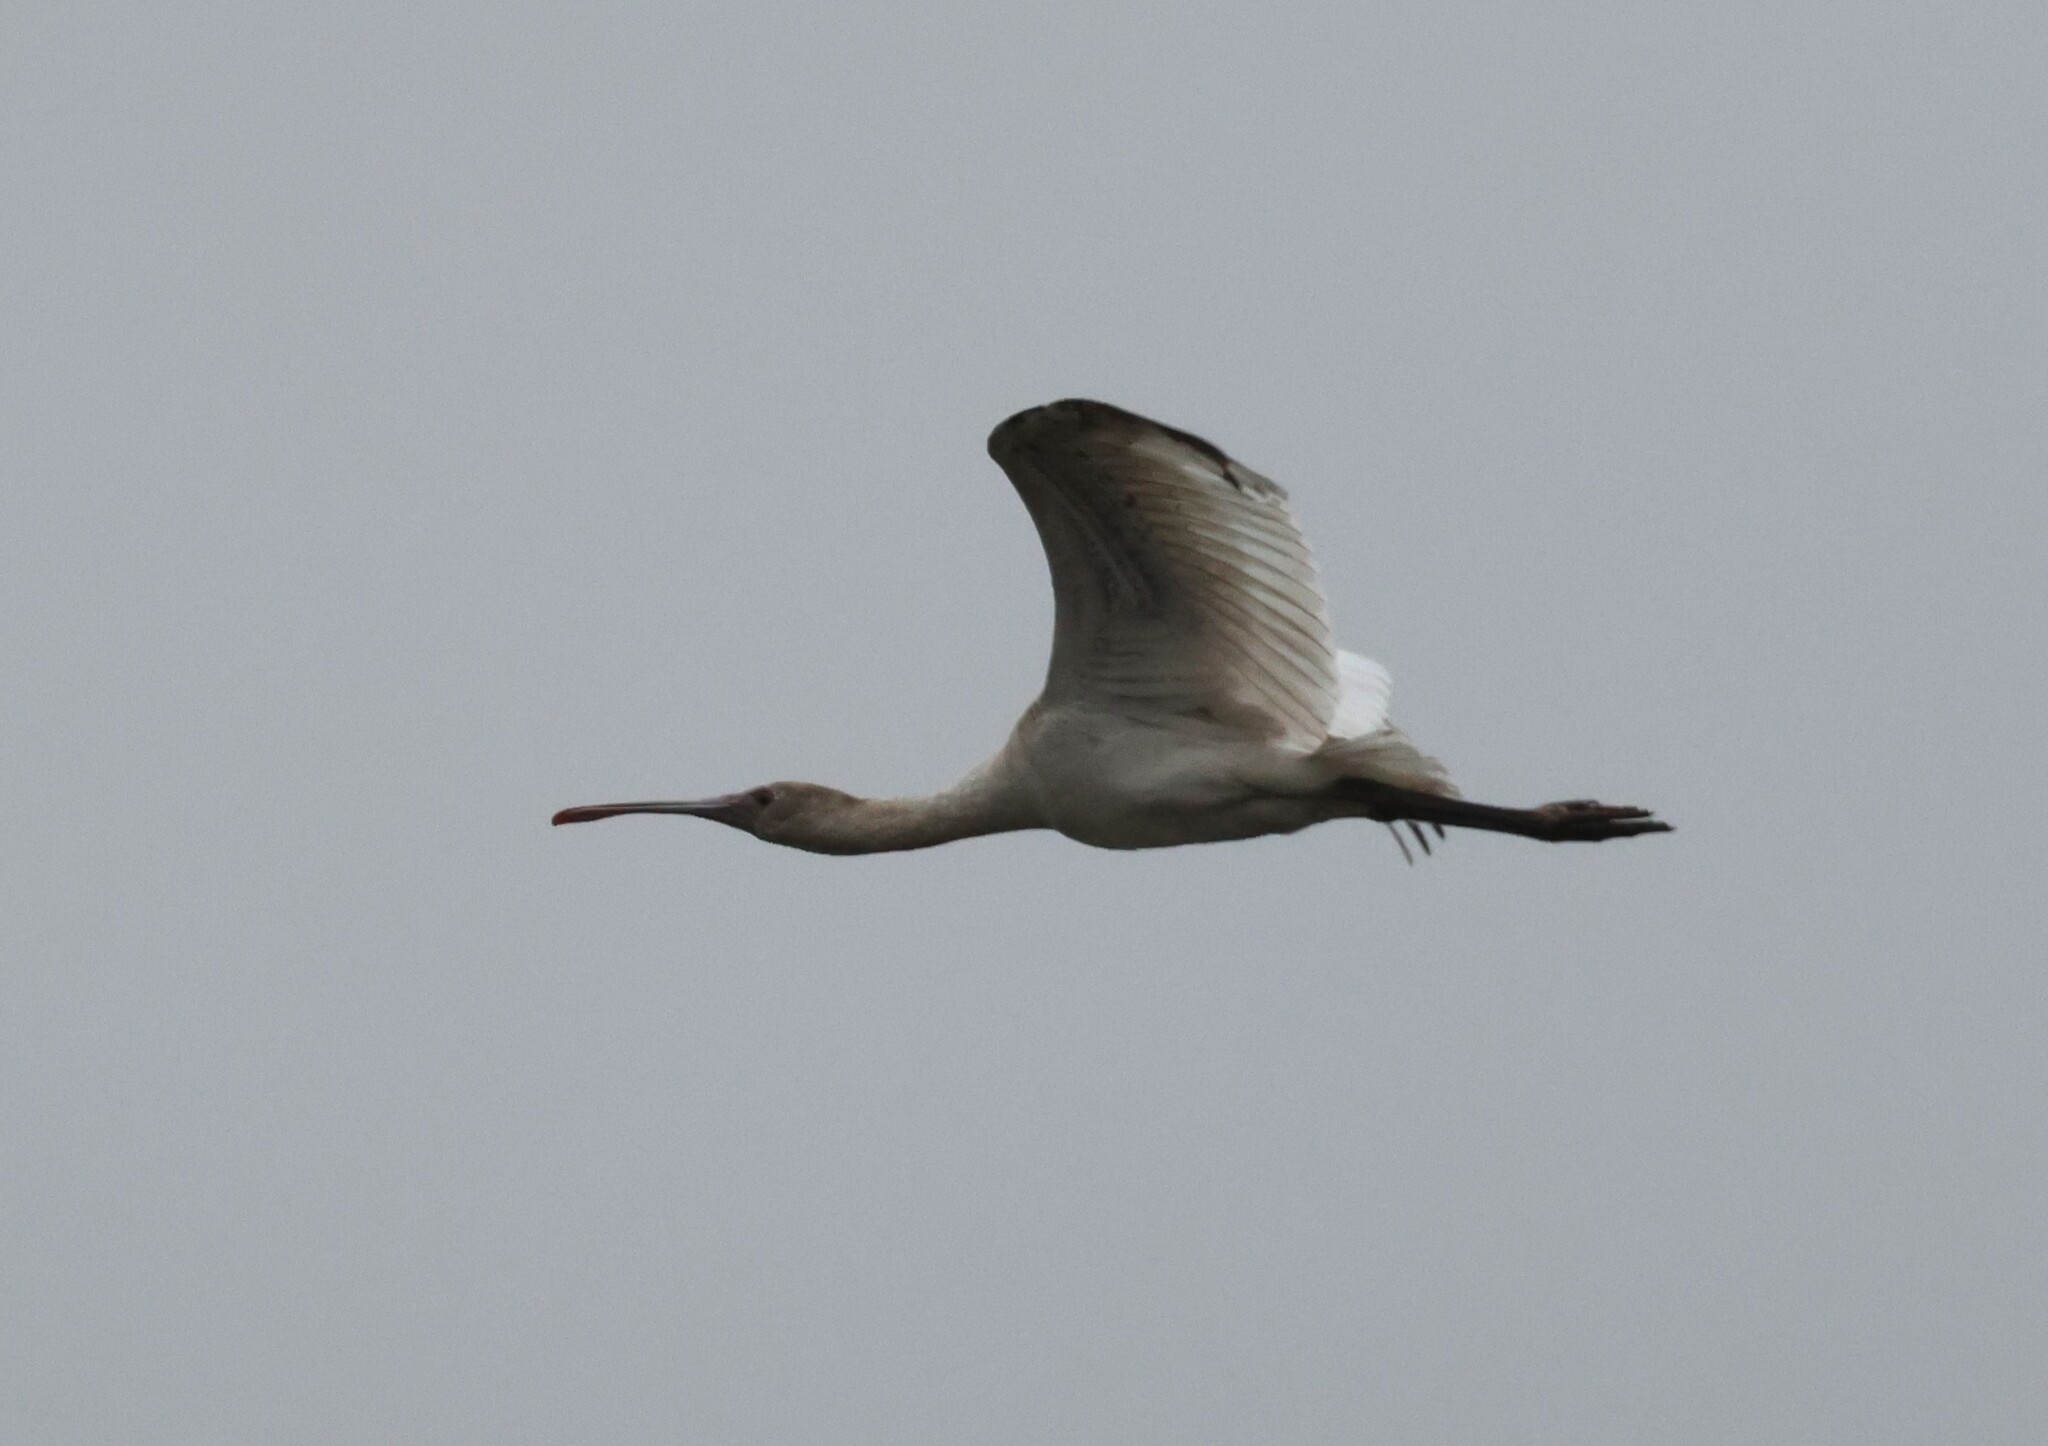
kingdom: Animalia
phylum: Chordata
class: Aves
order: Pelecaniformes
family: Threskiornithidae
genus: Platalea
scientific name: Platalea alba
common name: African spoonbill
